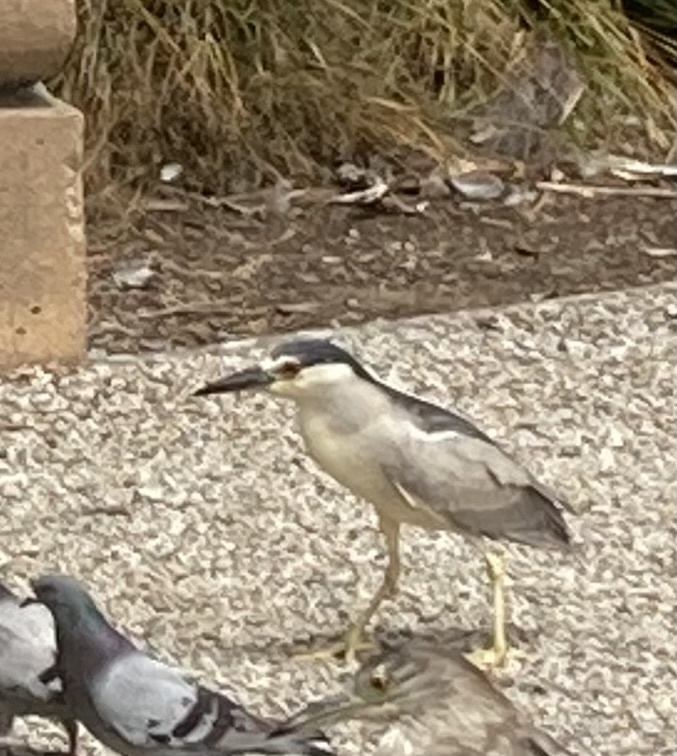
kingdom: Animalia
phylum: Chordata
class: Aves
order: Pelecaniformes
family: Ardeidae
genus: Nycticorax
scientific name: Nycticorax nycticorax
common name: Black-crowned night heron
